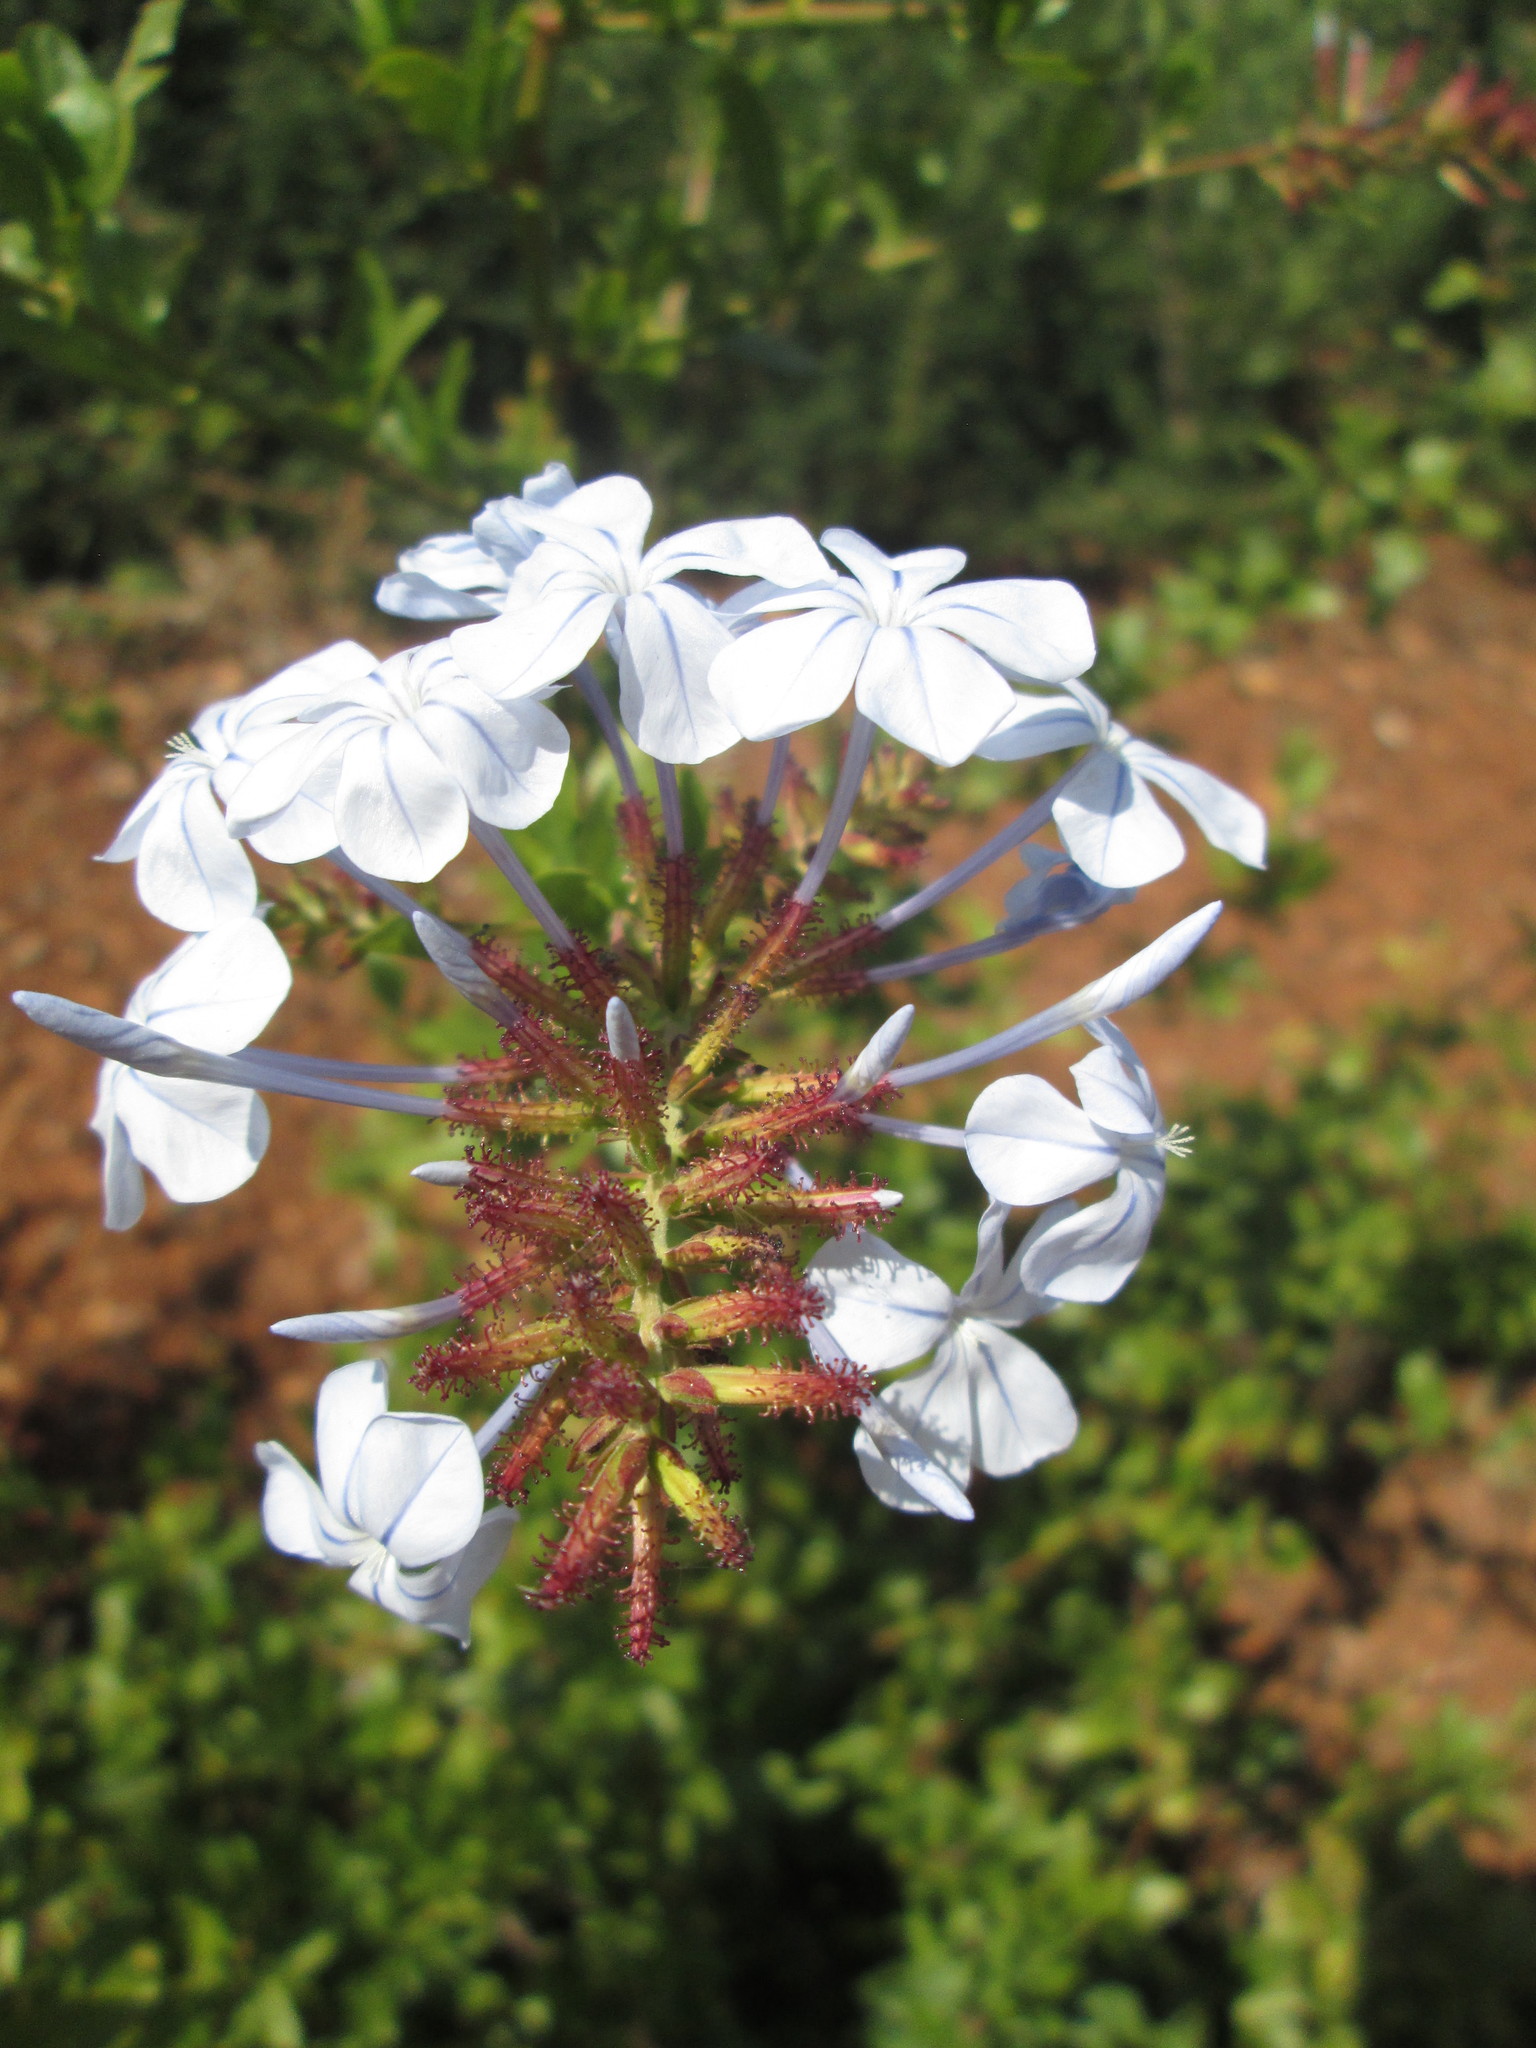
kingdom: Plantae
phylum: Tracheophyta
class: Magnoliopsida
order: Caryophyllales
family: Plumbaginaceae
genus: Plumbago
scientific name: Plumbago auriculata
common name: Cape leadwort
